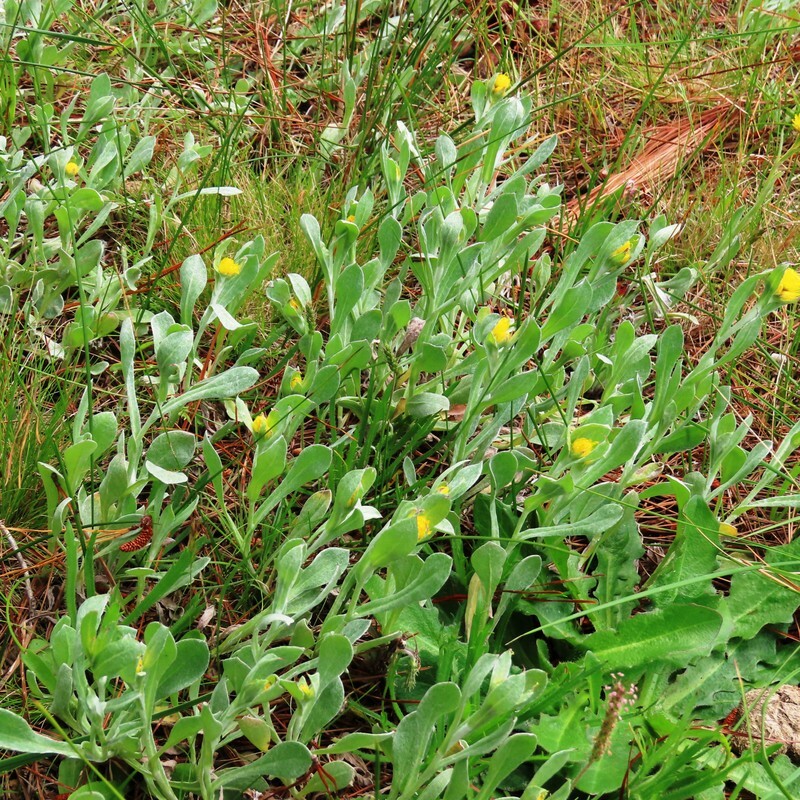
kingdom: Plantae
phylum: Tracheophyta
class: Magnoliopsida
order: Asterales
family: Asteraceae
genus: Chrysocephalum
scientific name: Chrysocephalum apiculatum
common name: Common everlasting
